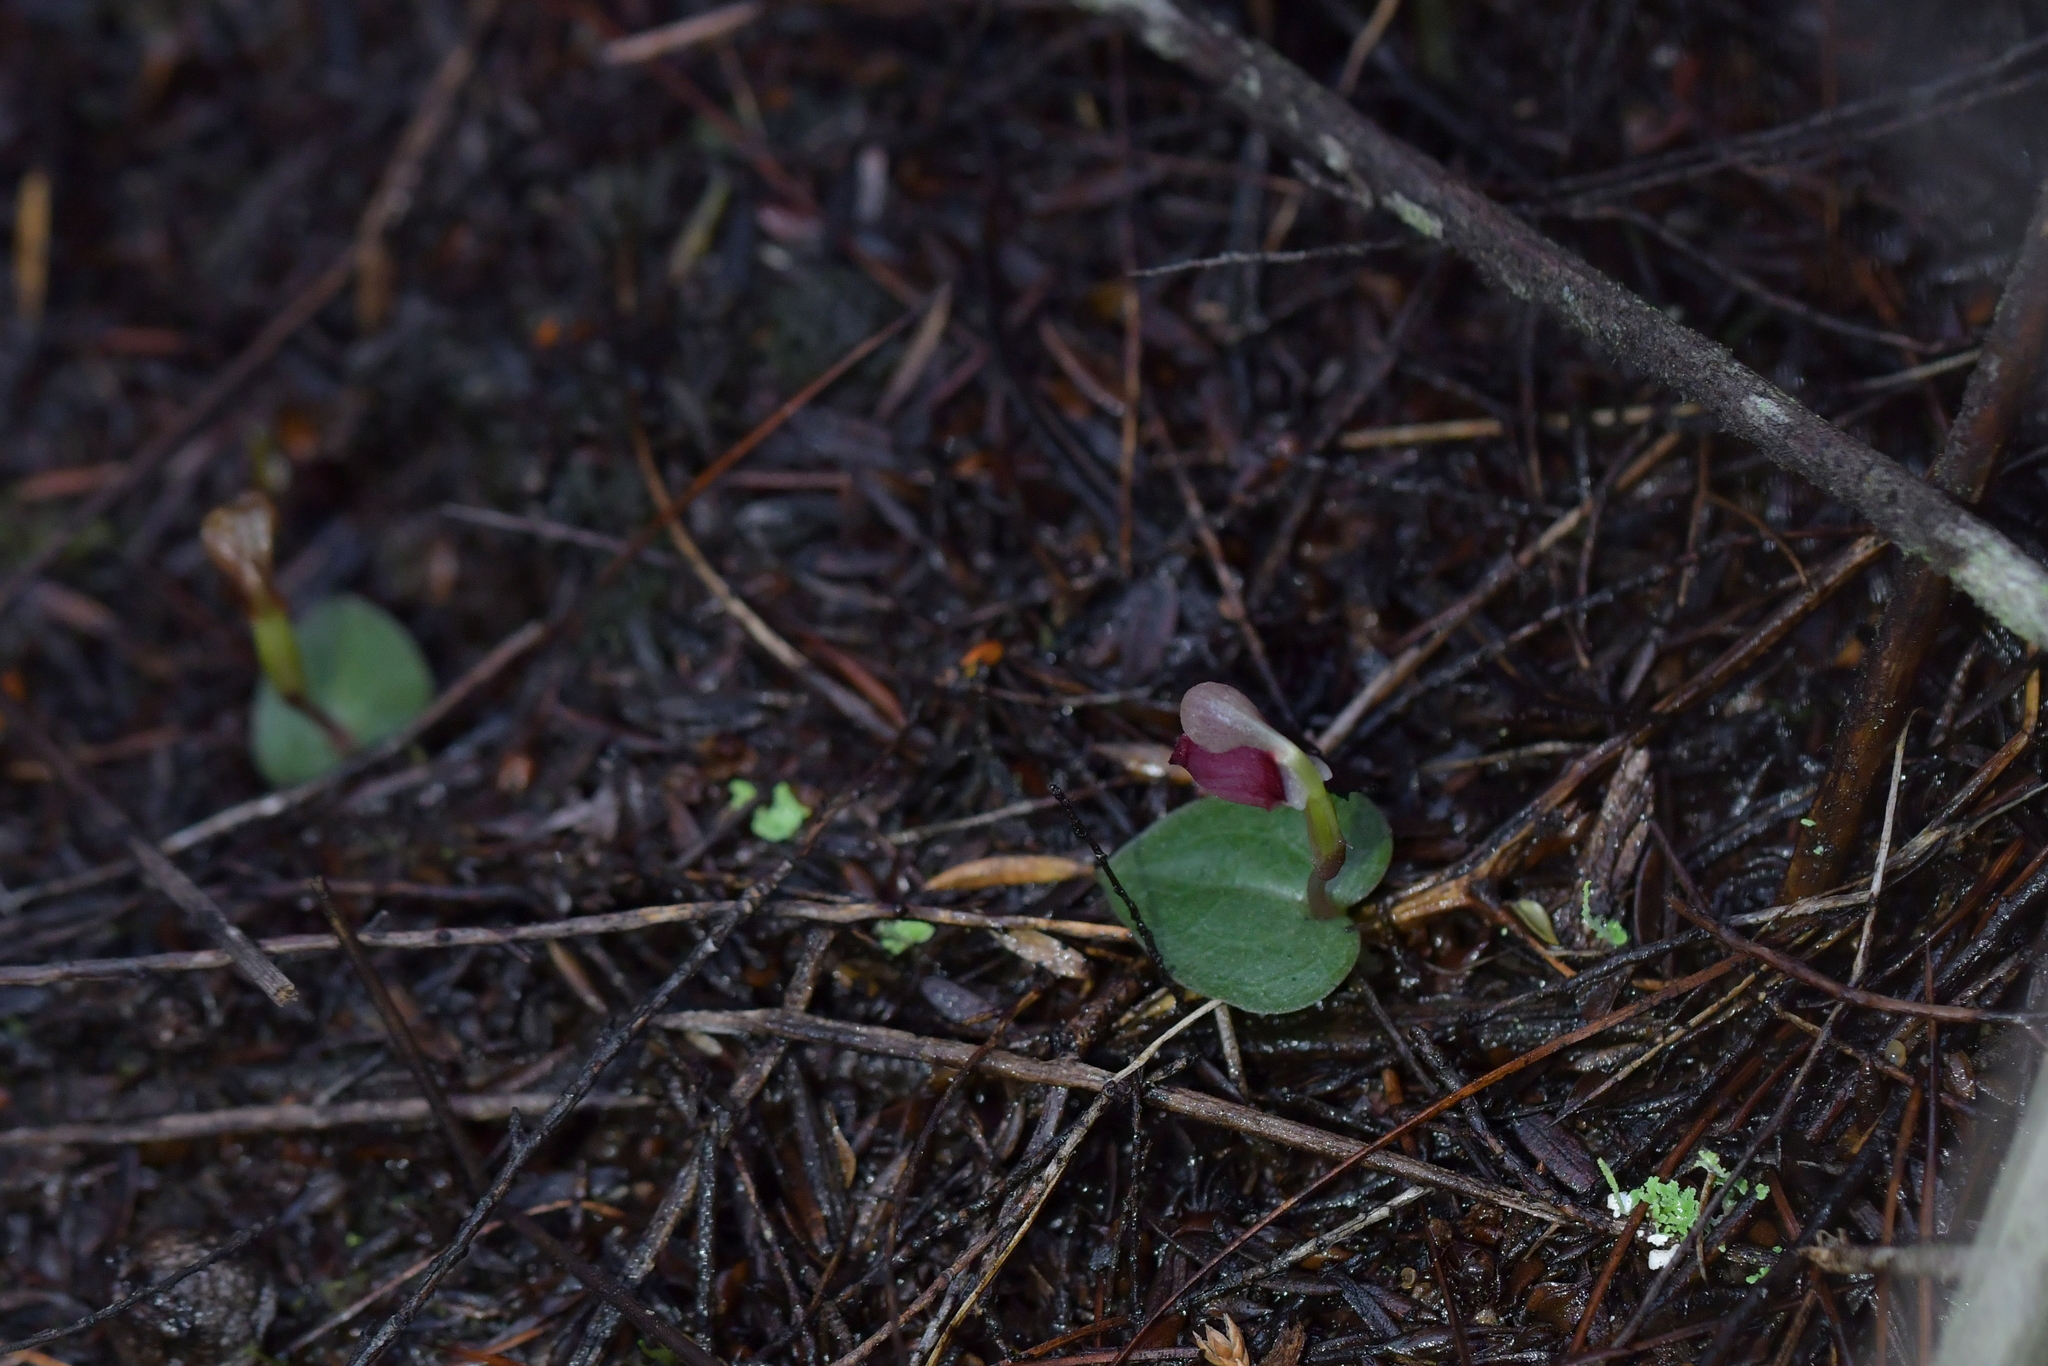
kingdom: Plantae
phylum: Tracheophyta
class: Liliopsida
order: Asparagales
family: Orchidaceae
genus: Corybas
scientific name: Corybas rotundifolius
